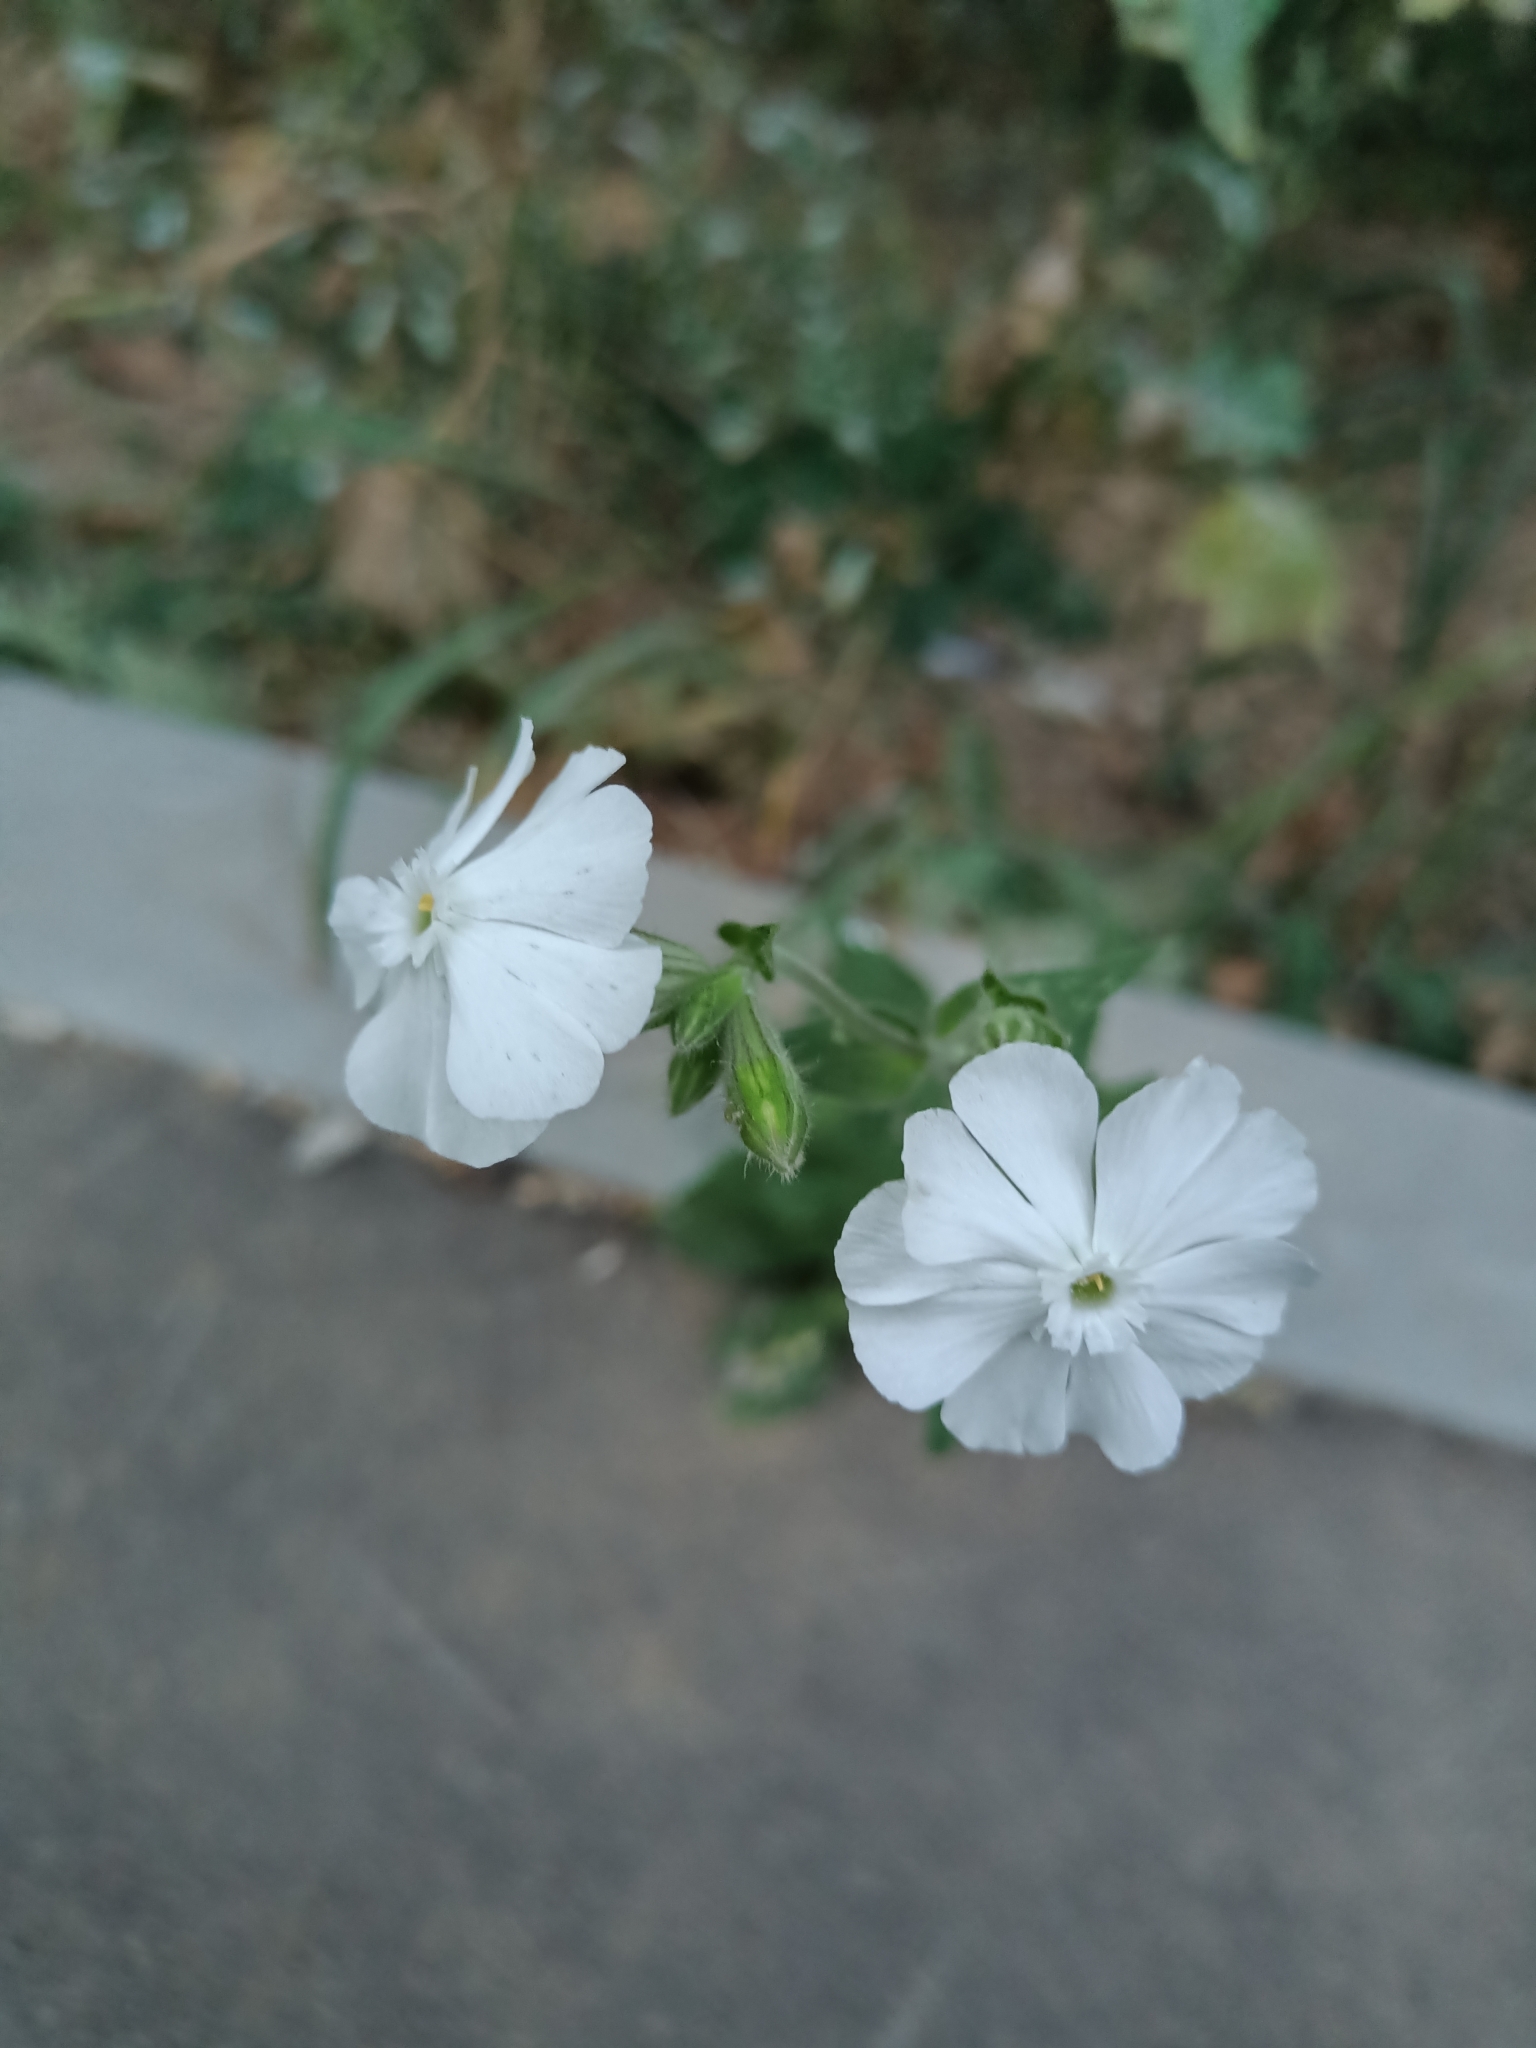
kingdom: Plantae
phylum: Tracheophyta
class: Magnoliopsida
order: Caryophyllales
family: Caryophyllaceae
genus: Silene
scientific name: Silene latifolia
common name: White campion
